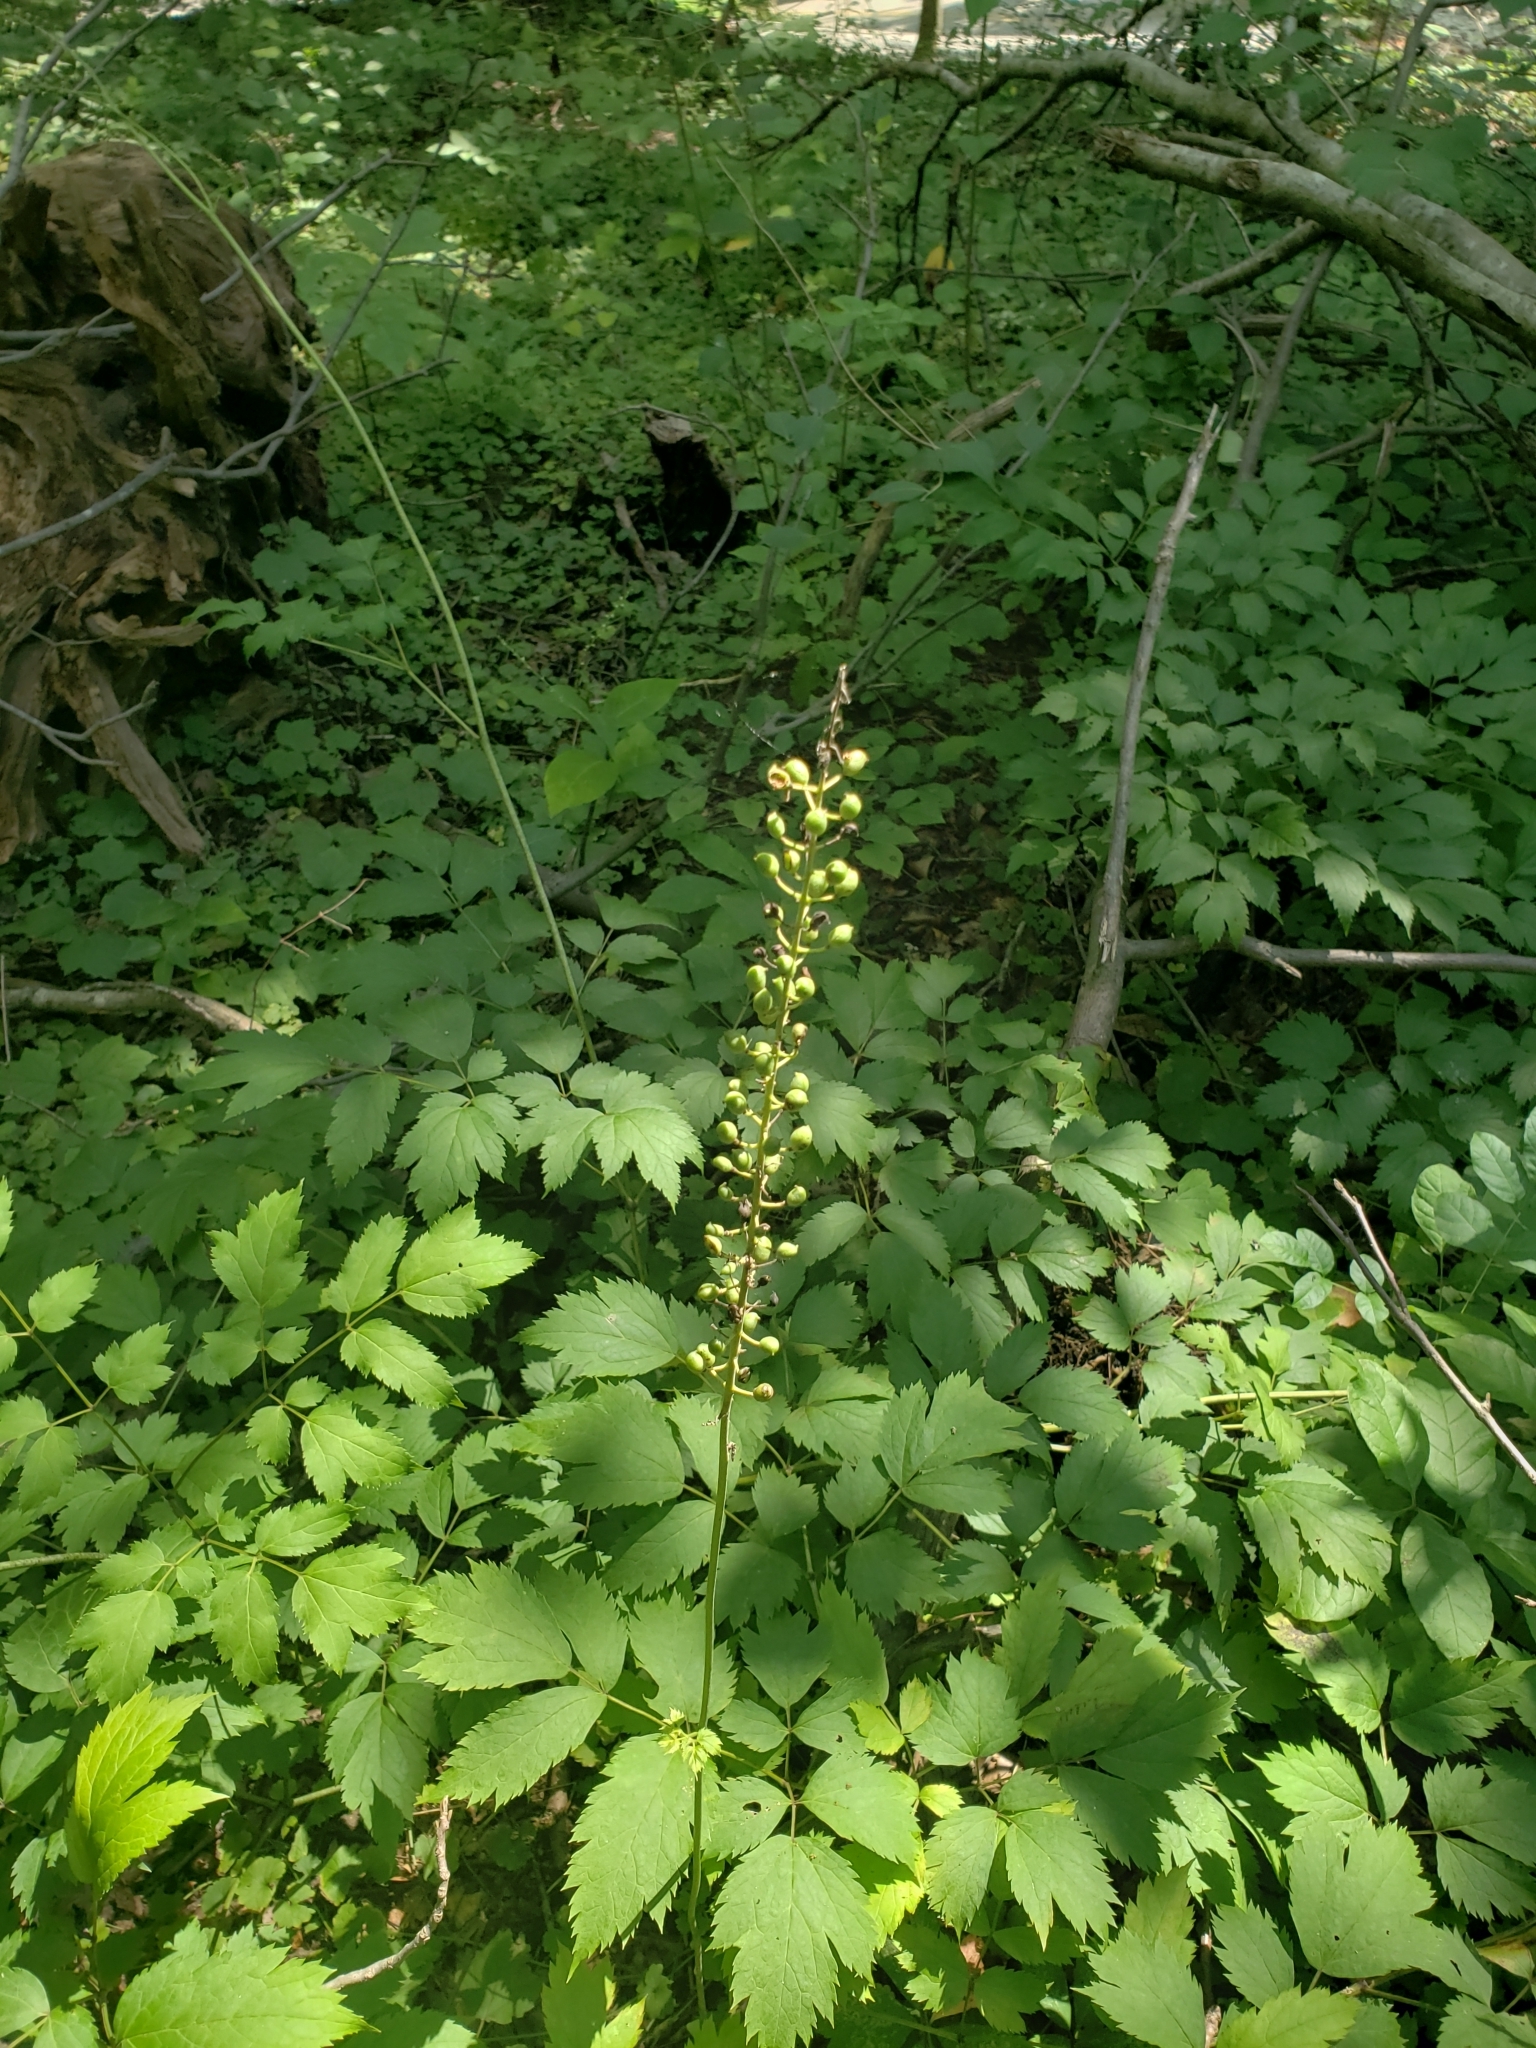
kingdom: Plantae
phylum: Tracheophyta
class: Magnoliopsida
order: Ranunculales
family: Ranunculaceae
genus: Actaea
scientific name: Actaea racemosa
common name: Black cohosh
